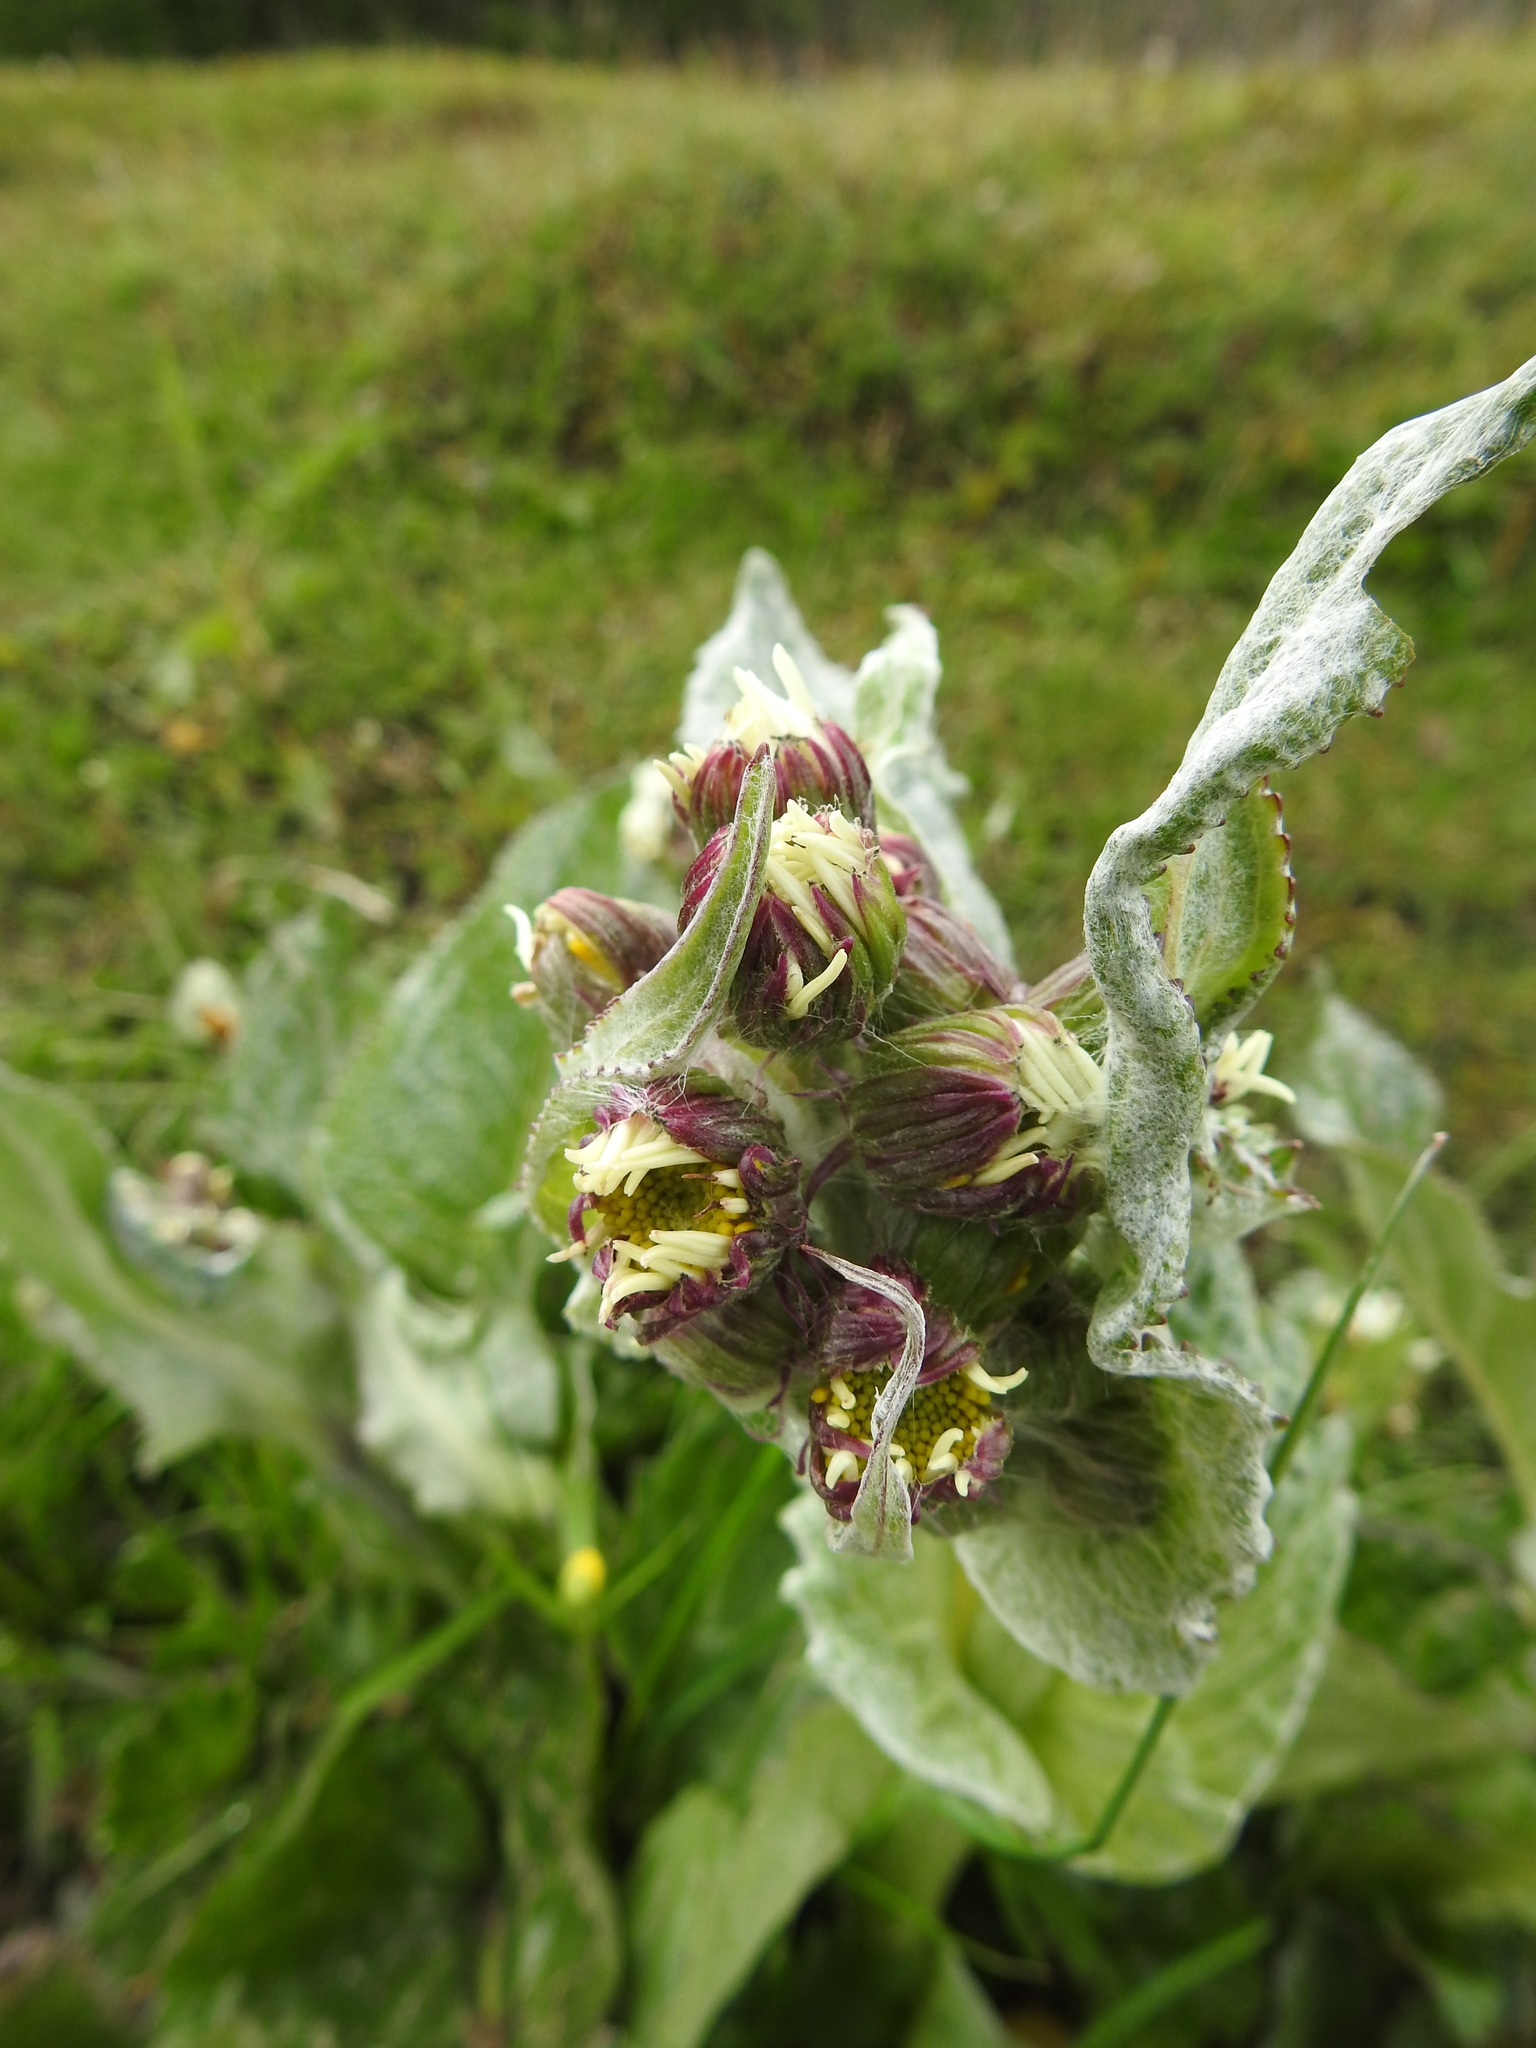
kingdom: Plantae
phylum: Tracheophyta
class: Magnoliopsida
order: Asterales
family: Asteraceae
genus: Senecio
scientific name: Senecio smithii
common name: Magellan ragwort
